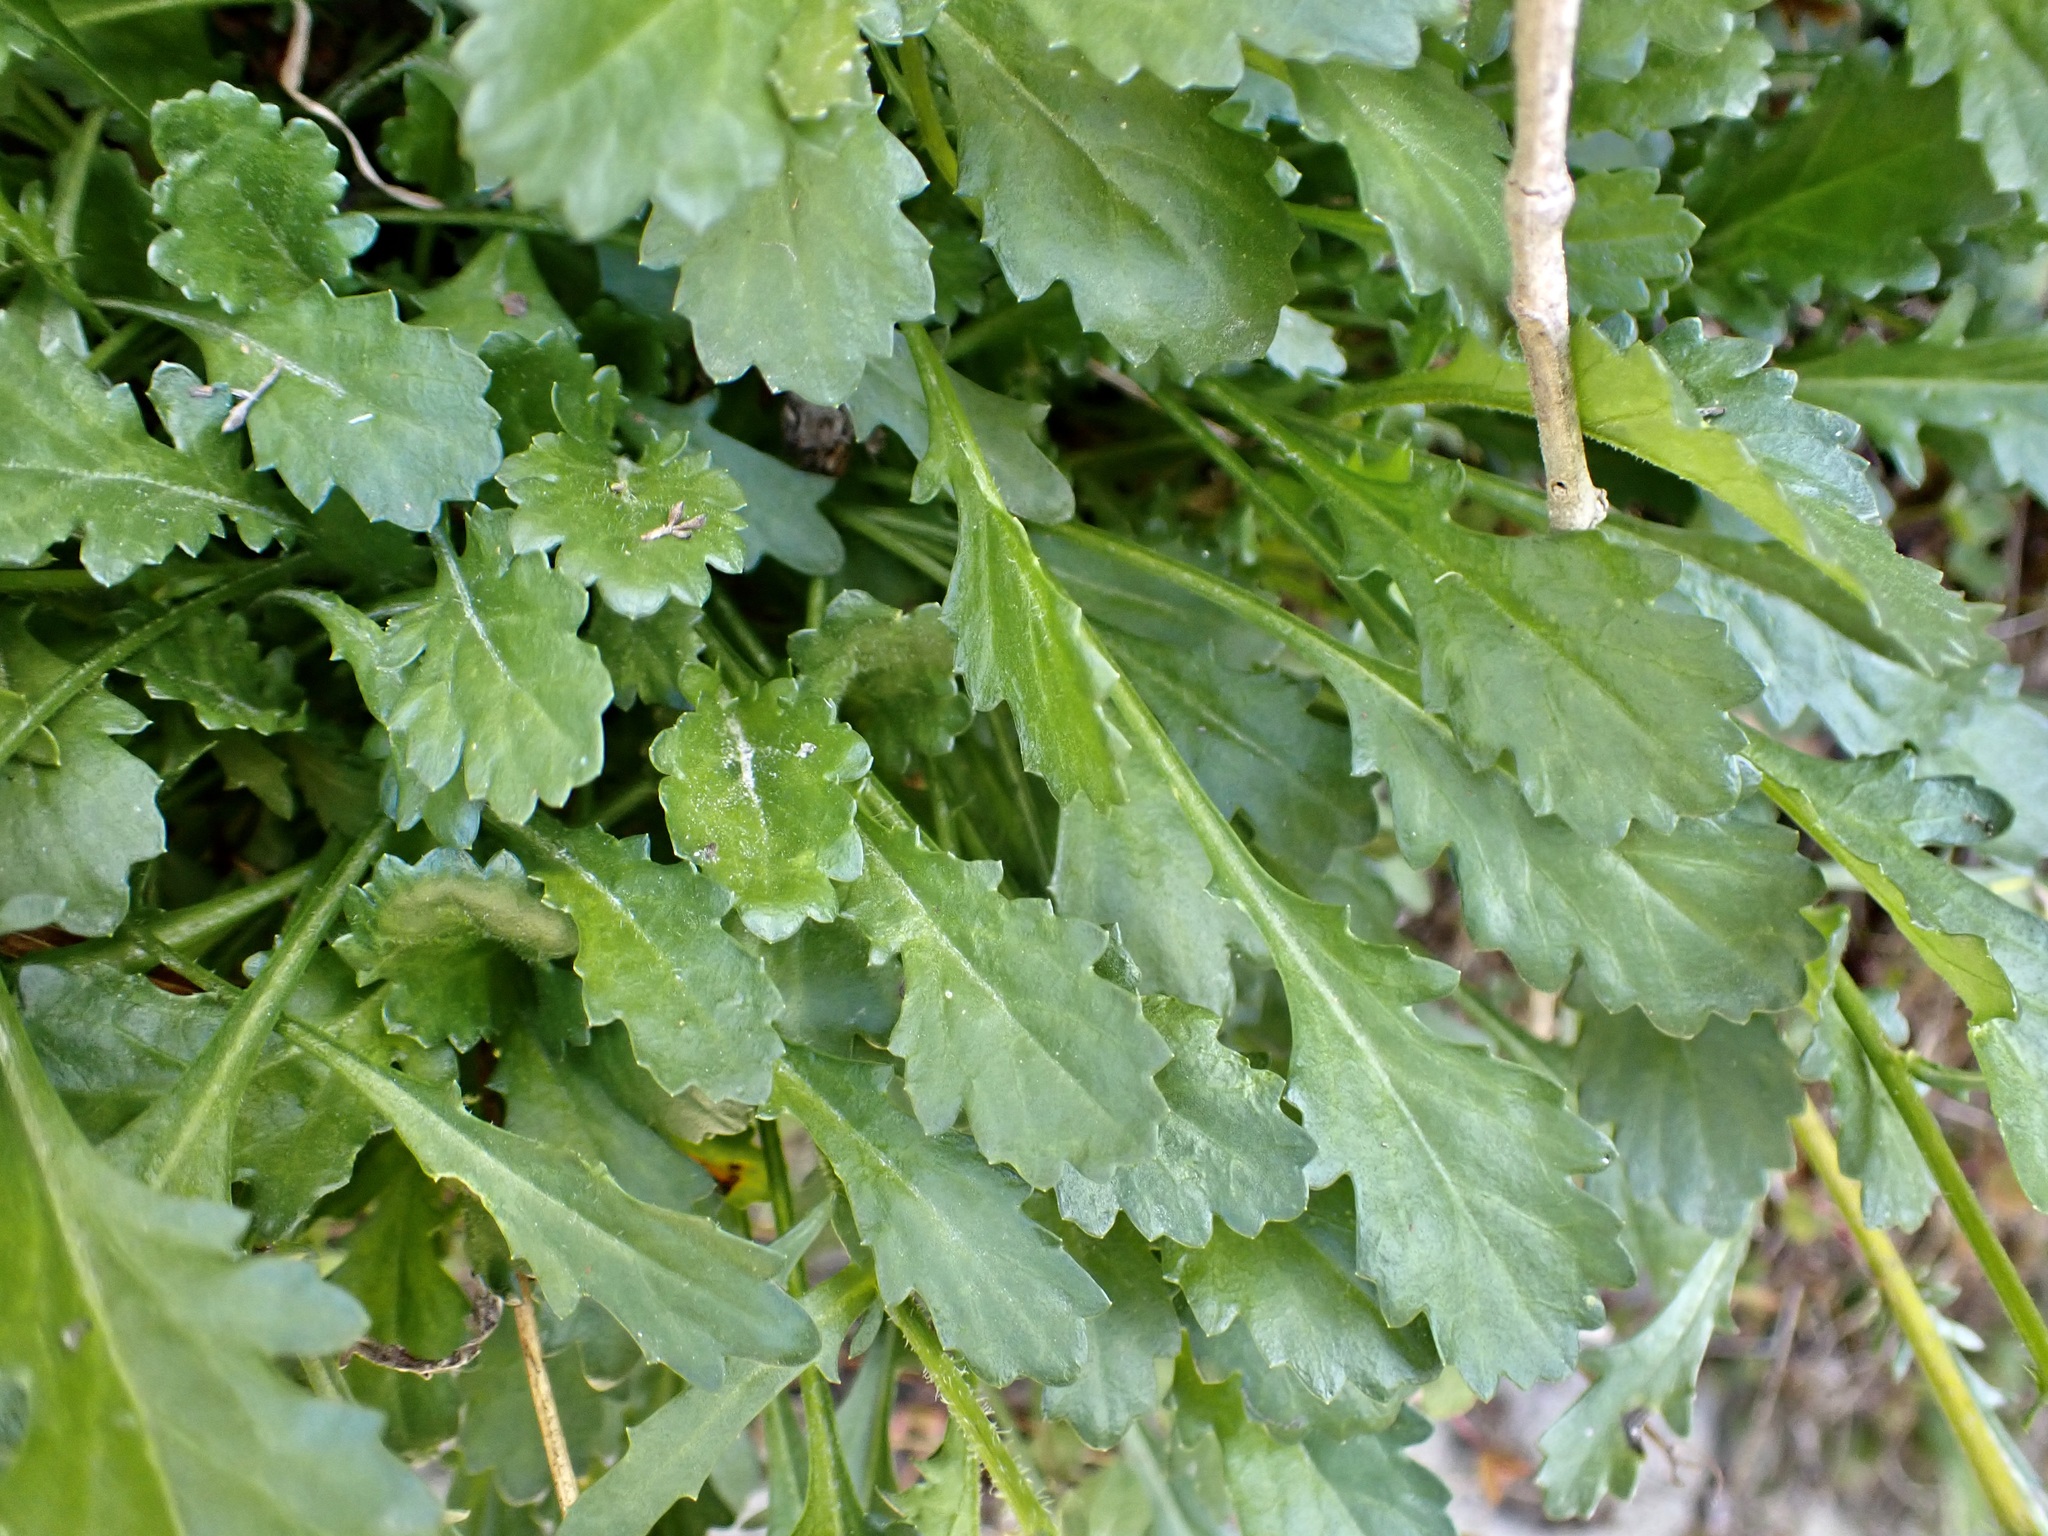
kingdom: Plantae
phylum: Tracheophyta
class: Magnoliopsida
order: Asterales
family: Asteraceae
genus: Leucanthemum
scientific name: Leucanthemum vulgare
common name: Oxeye daisy
